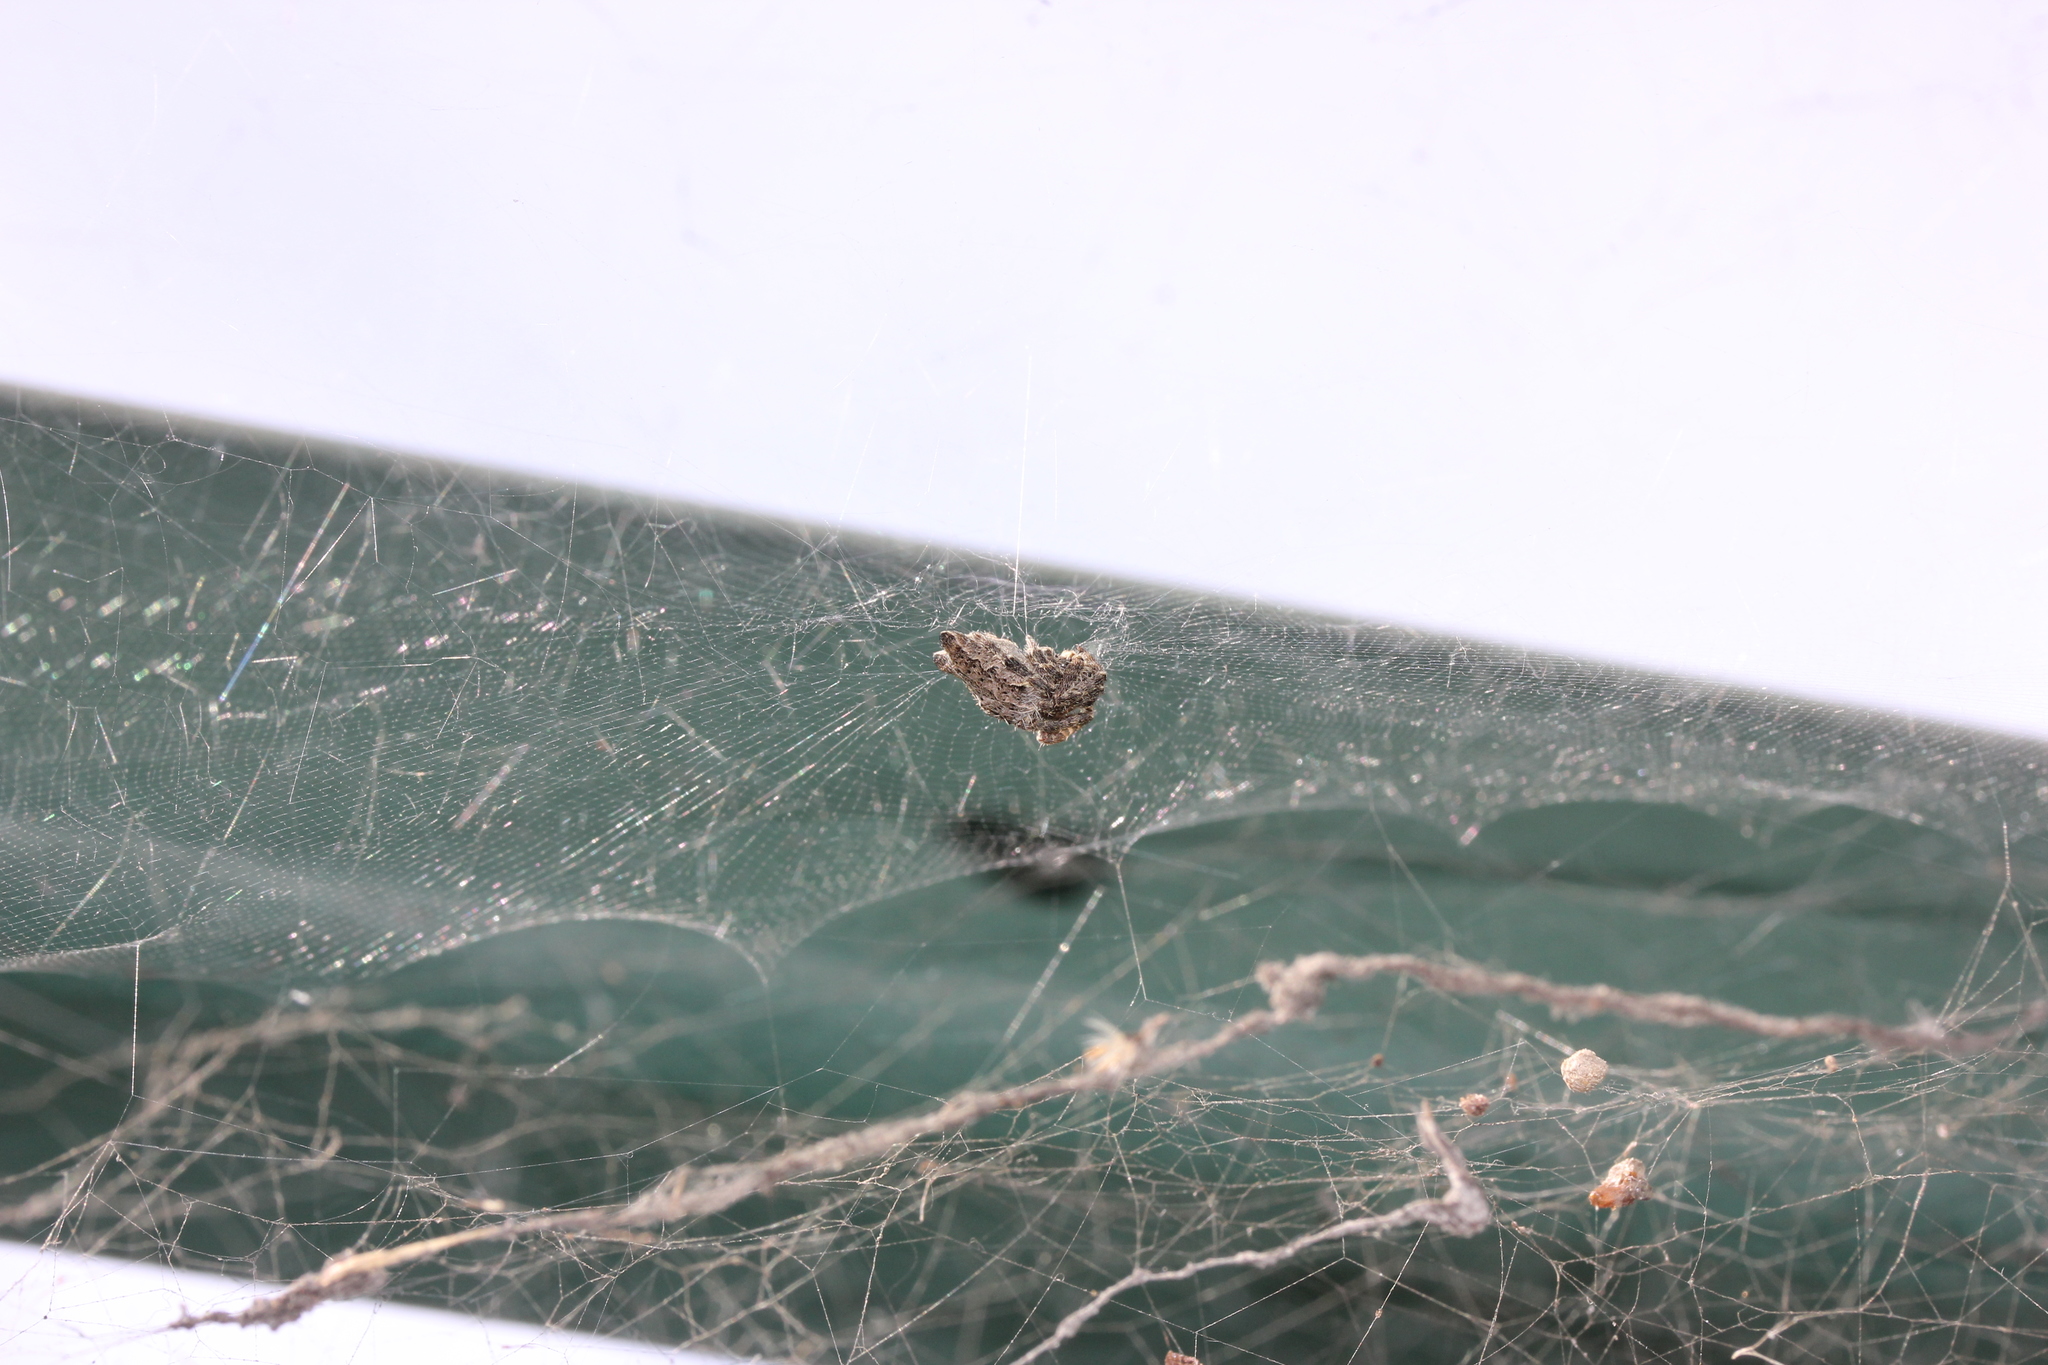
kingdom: Animalia
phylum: Arthropoda
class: Arachnida
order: Araneae
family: Araneidae
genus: Cyrtophora
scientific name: Cyrtophora citricola
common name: Orb weavers
